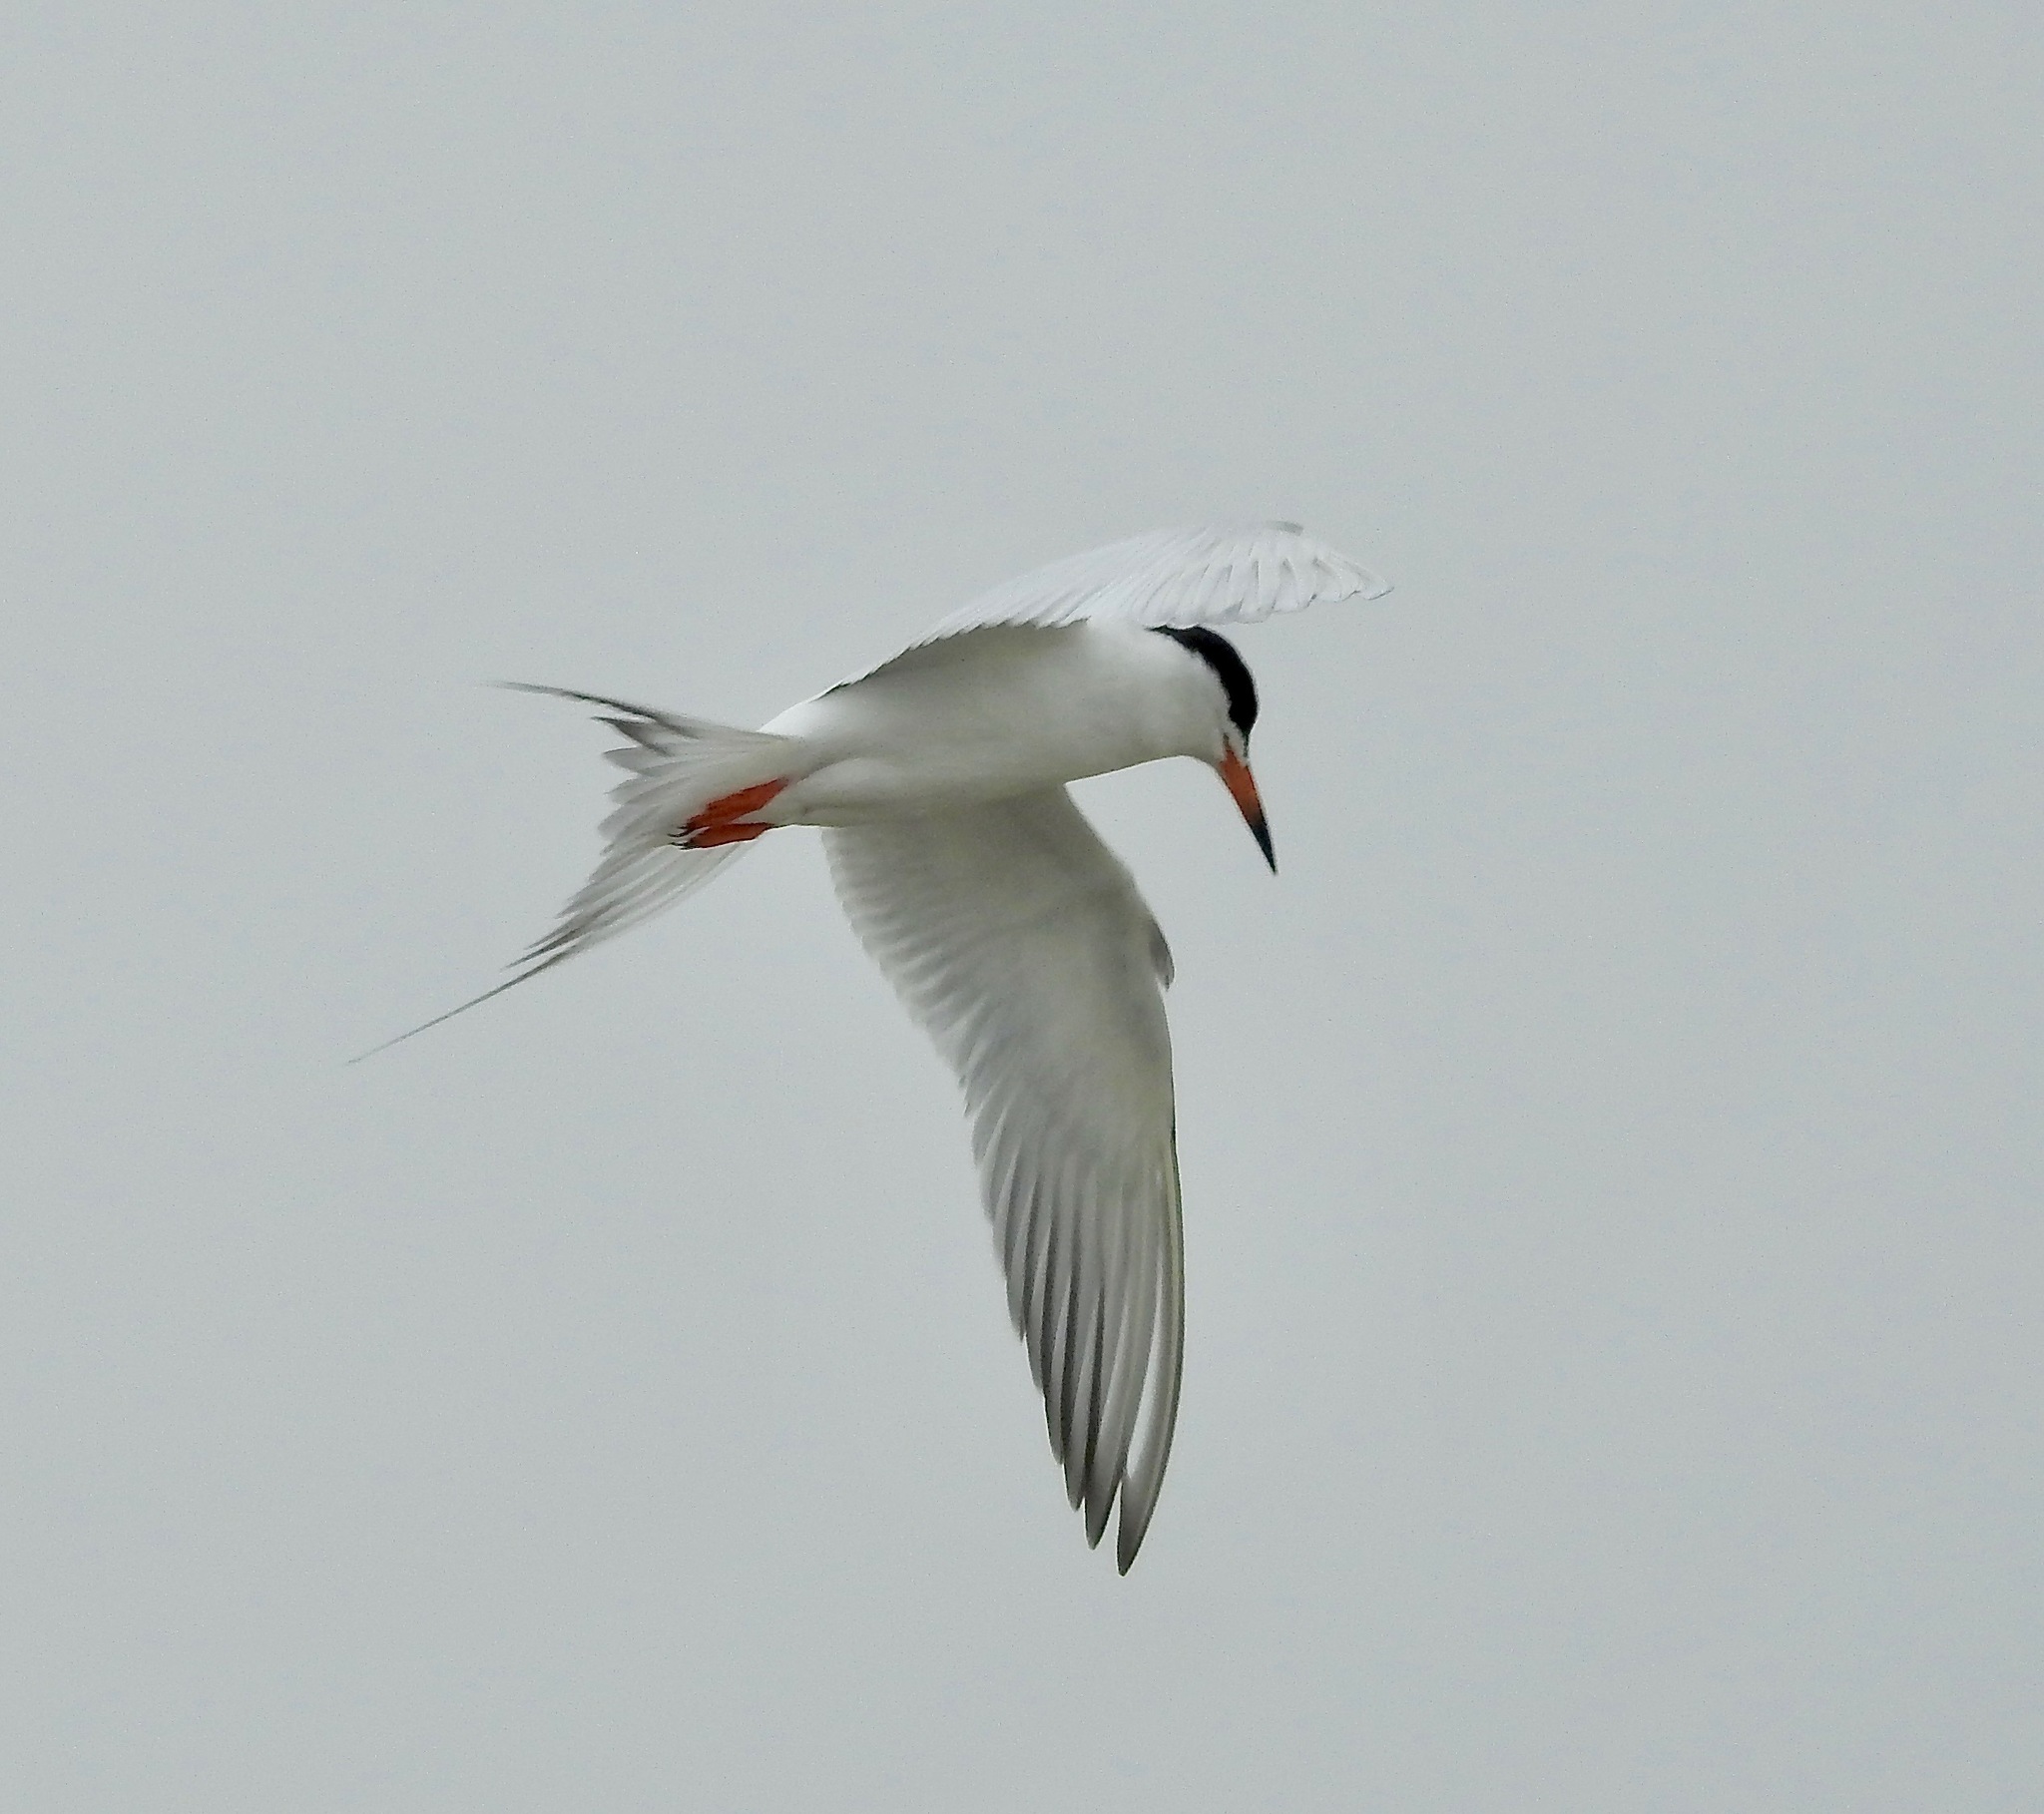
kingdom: Animalia
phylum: Chordata
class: Aves
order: Charadriiformes
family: Laridae
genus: Sterna
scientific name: Sterna forsteri
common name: Forster's tern
